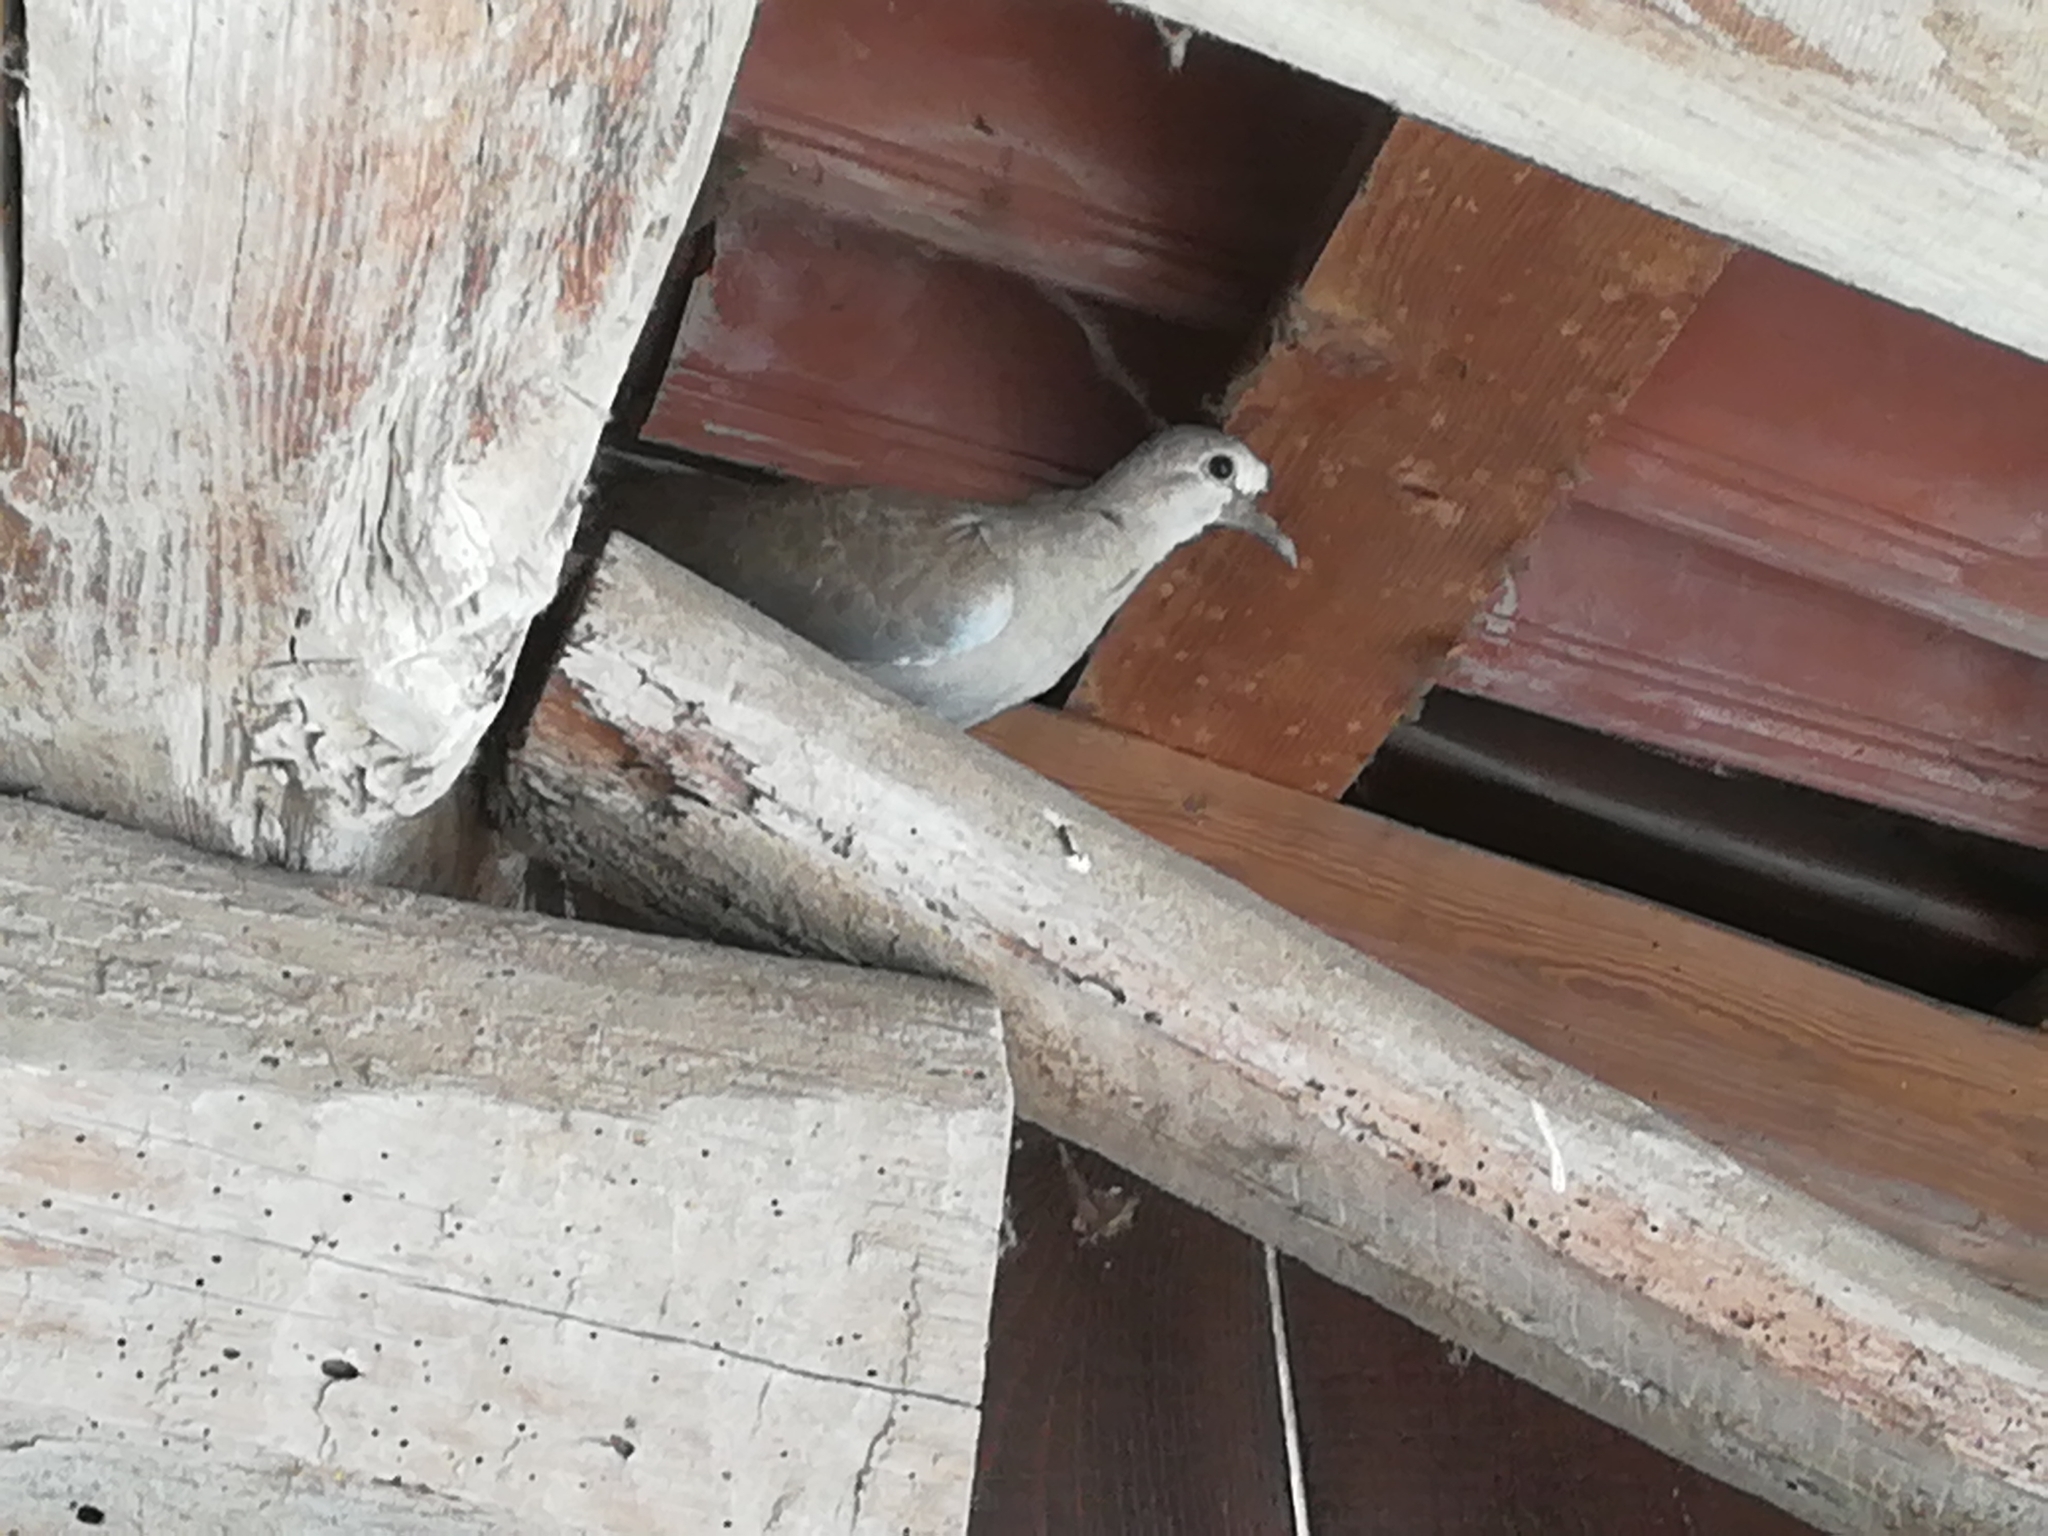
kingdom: Animalia
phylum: Chordata
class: Aves
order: Columbiformes
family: Columbidae
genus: Streptopelia
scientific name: Streptopelia decaocto
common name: Eurasian collared dove
